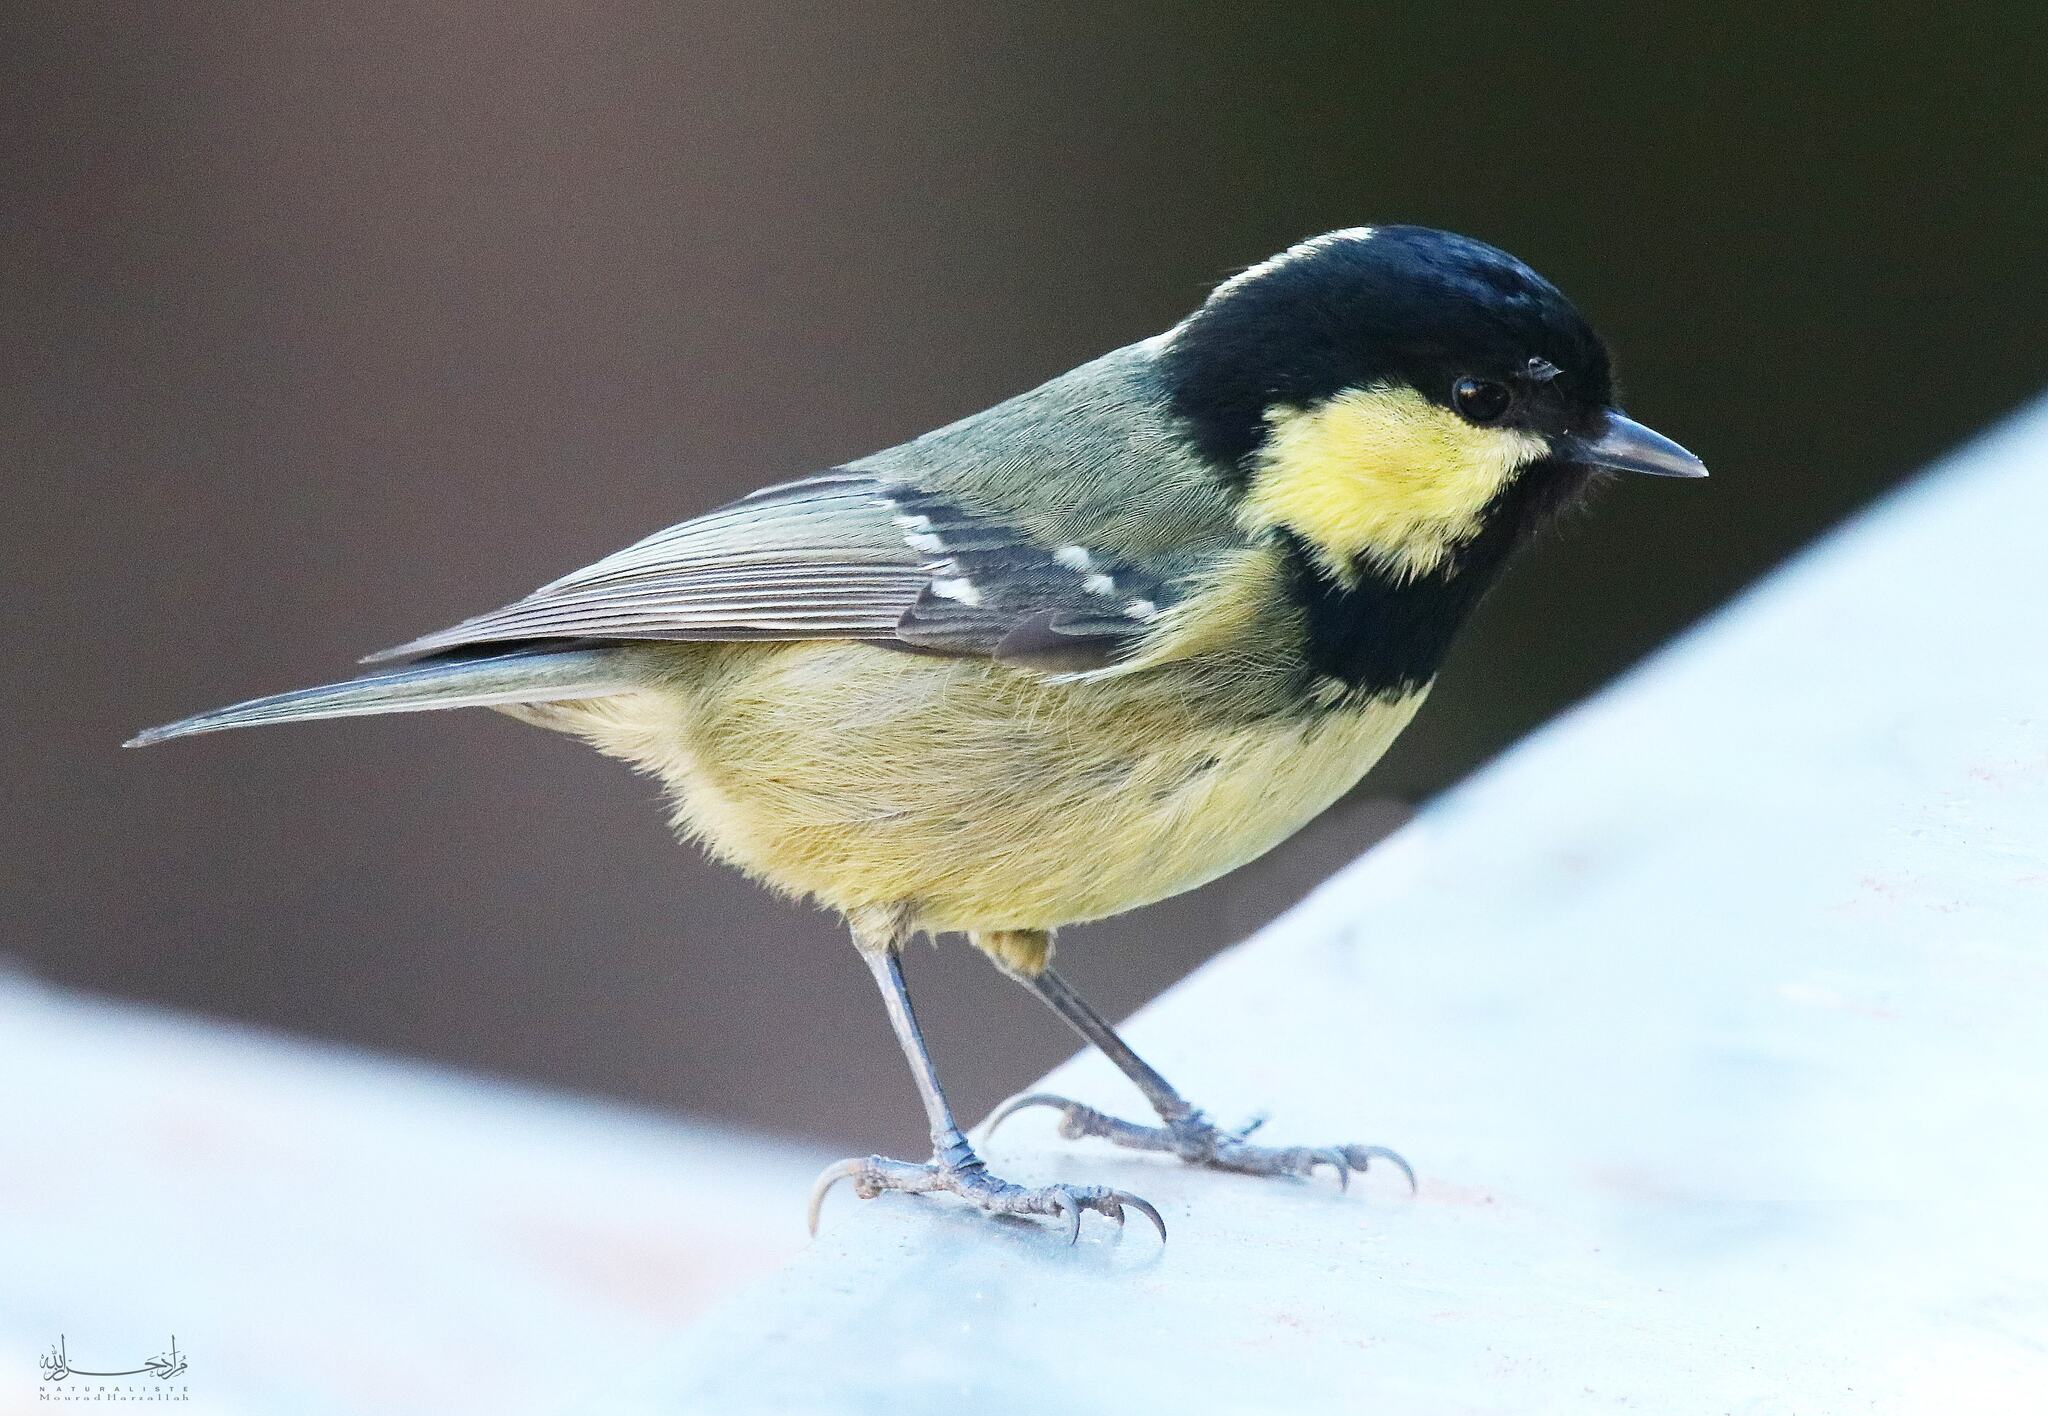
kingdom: Animalia
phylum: Chordata
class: Aves
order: Passeriformes
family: Paridae
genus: Periparus
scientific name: Periparus ater
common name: Coal tit
